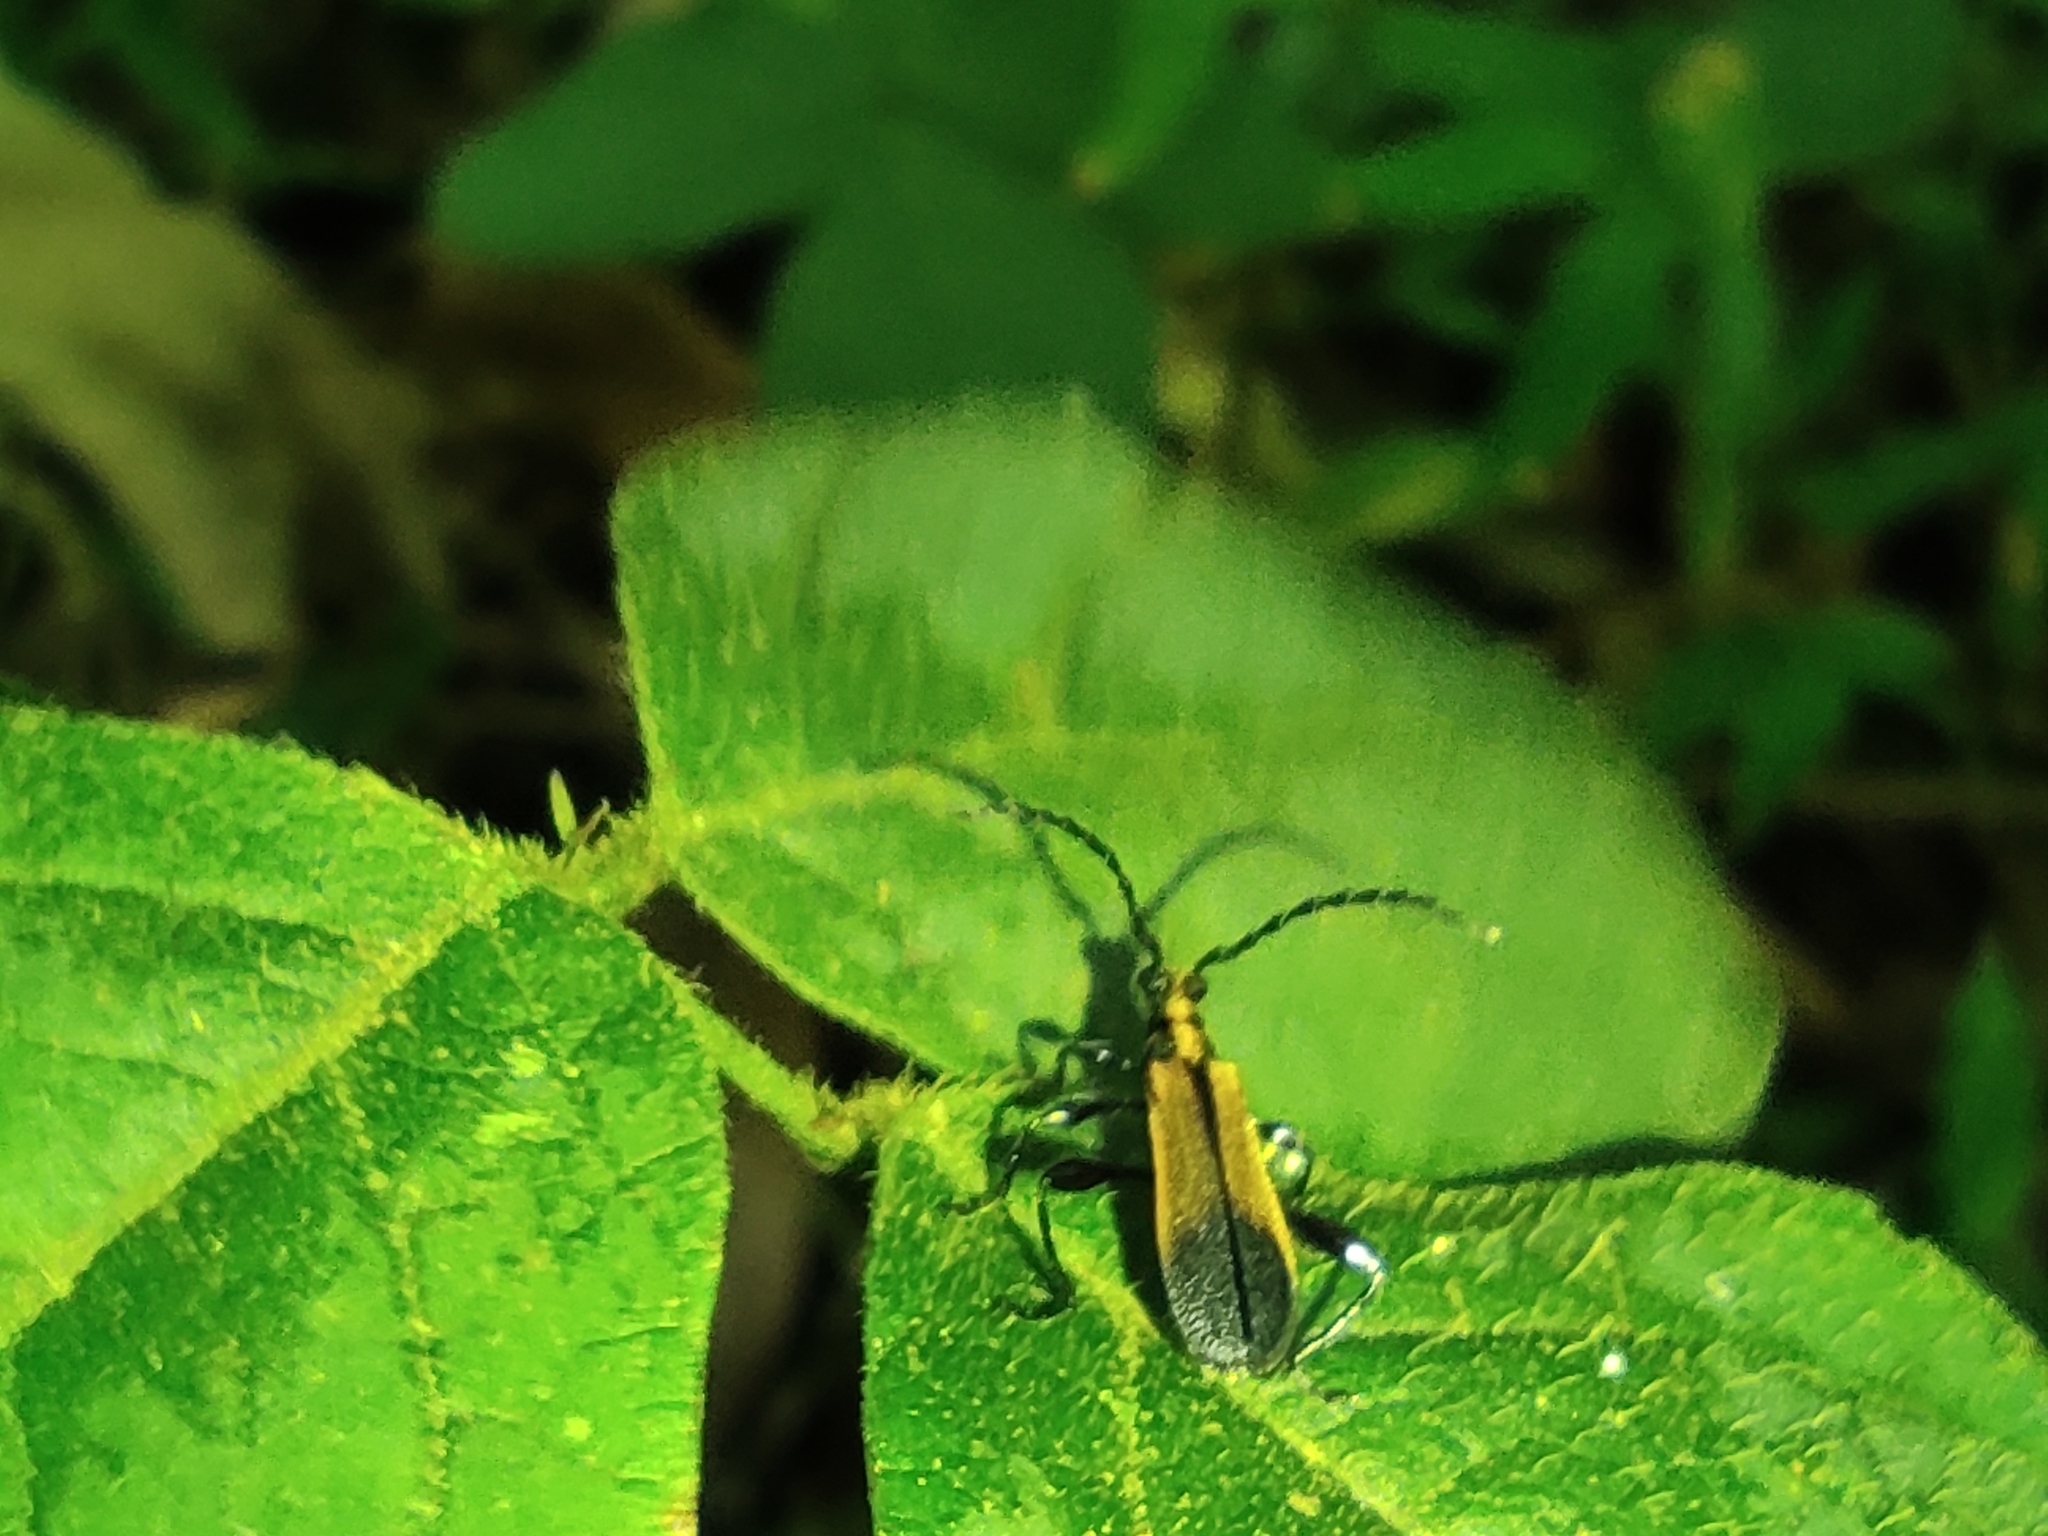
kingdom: Animalia
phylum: Arthropoda
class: Insecta
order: Coleoptera
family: Cerambycidae
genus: Tethlimmena
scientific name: Tethlimmena aliena
